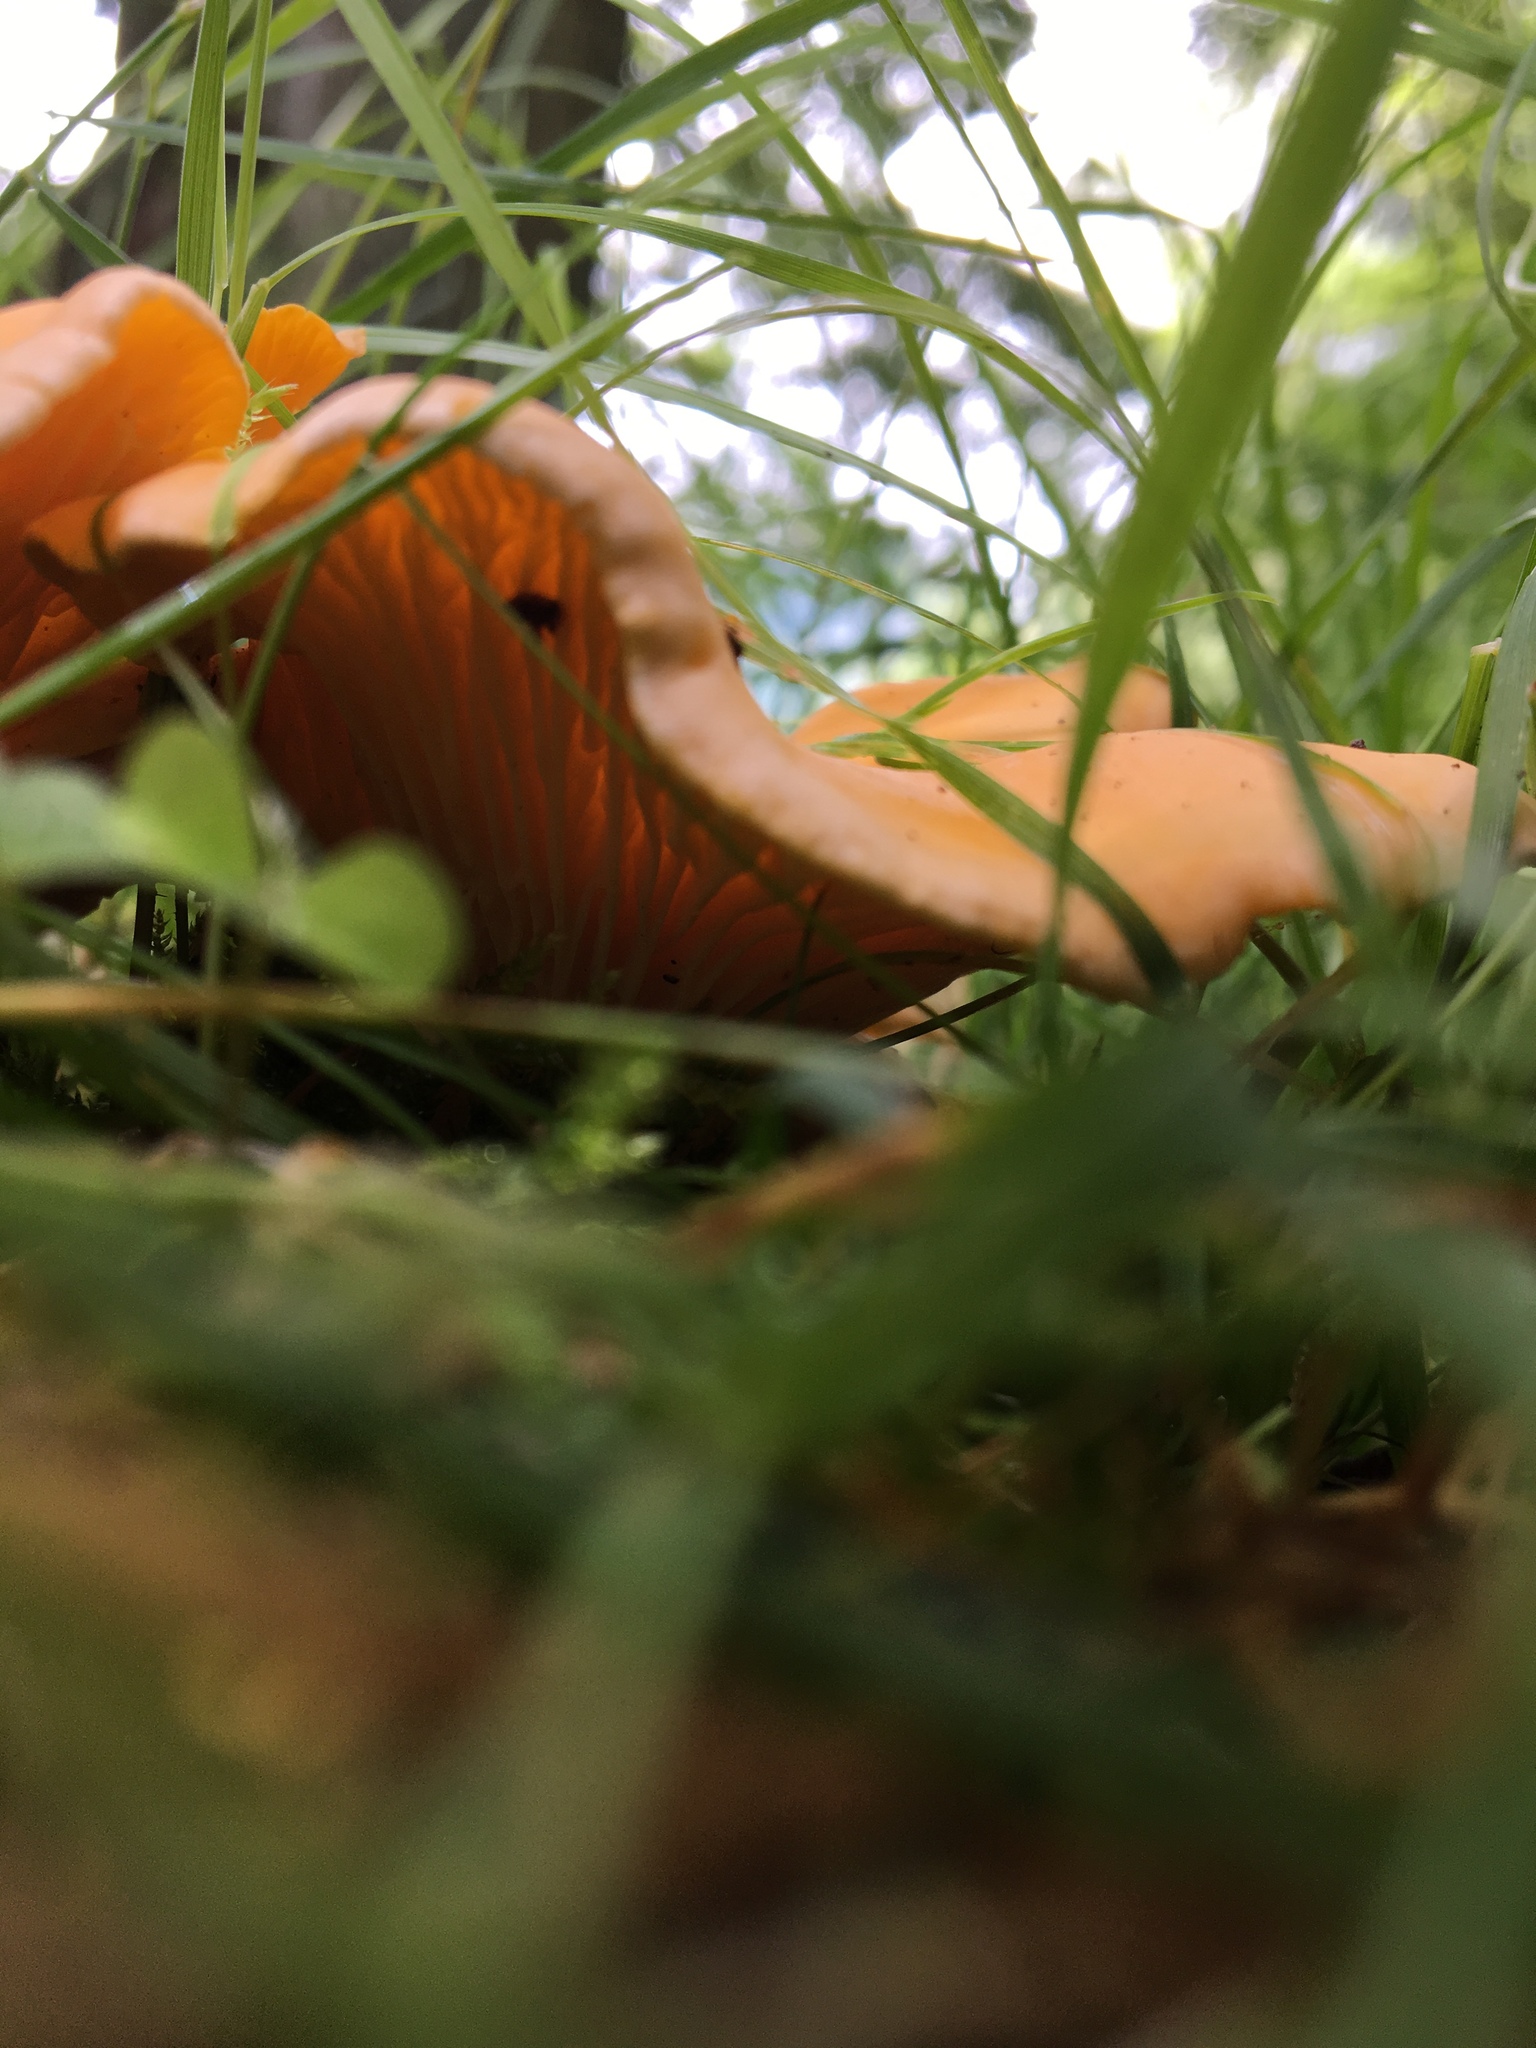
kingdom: Fungi
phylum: Basidiomycota
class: Agaricomycetes
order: Cantharellales
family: Hydnaceae
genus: Cantharellus
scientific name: Cantharellus cibarius
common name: Chanterelle
